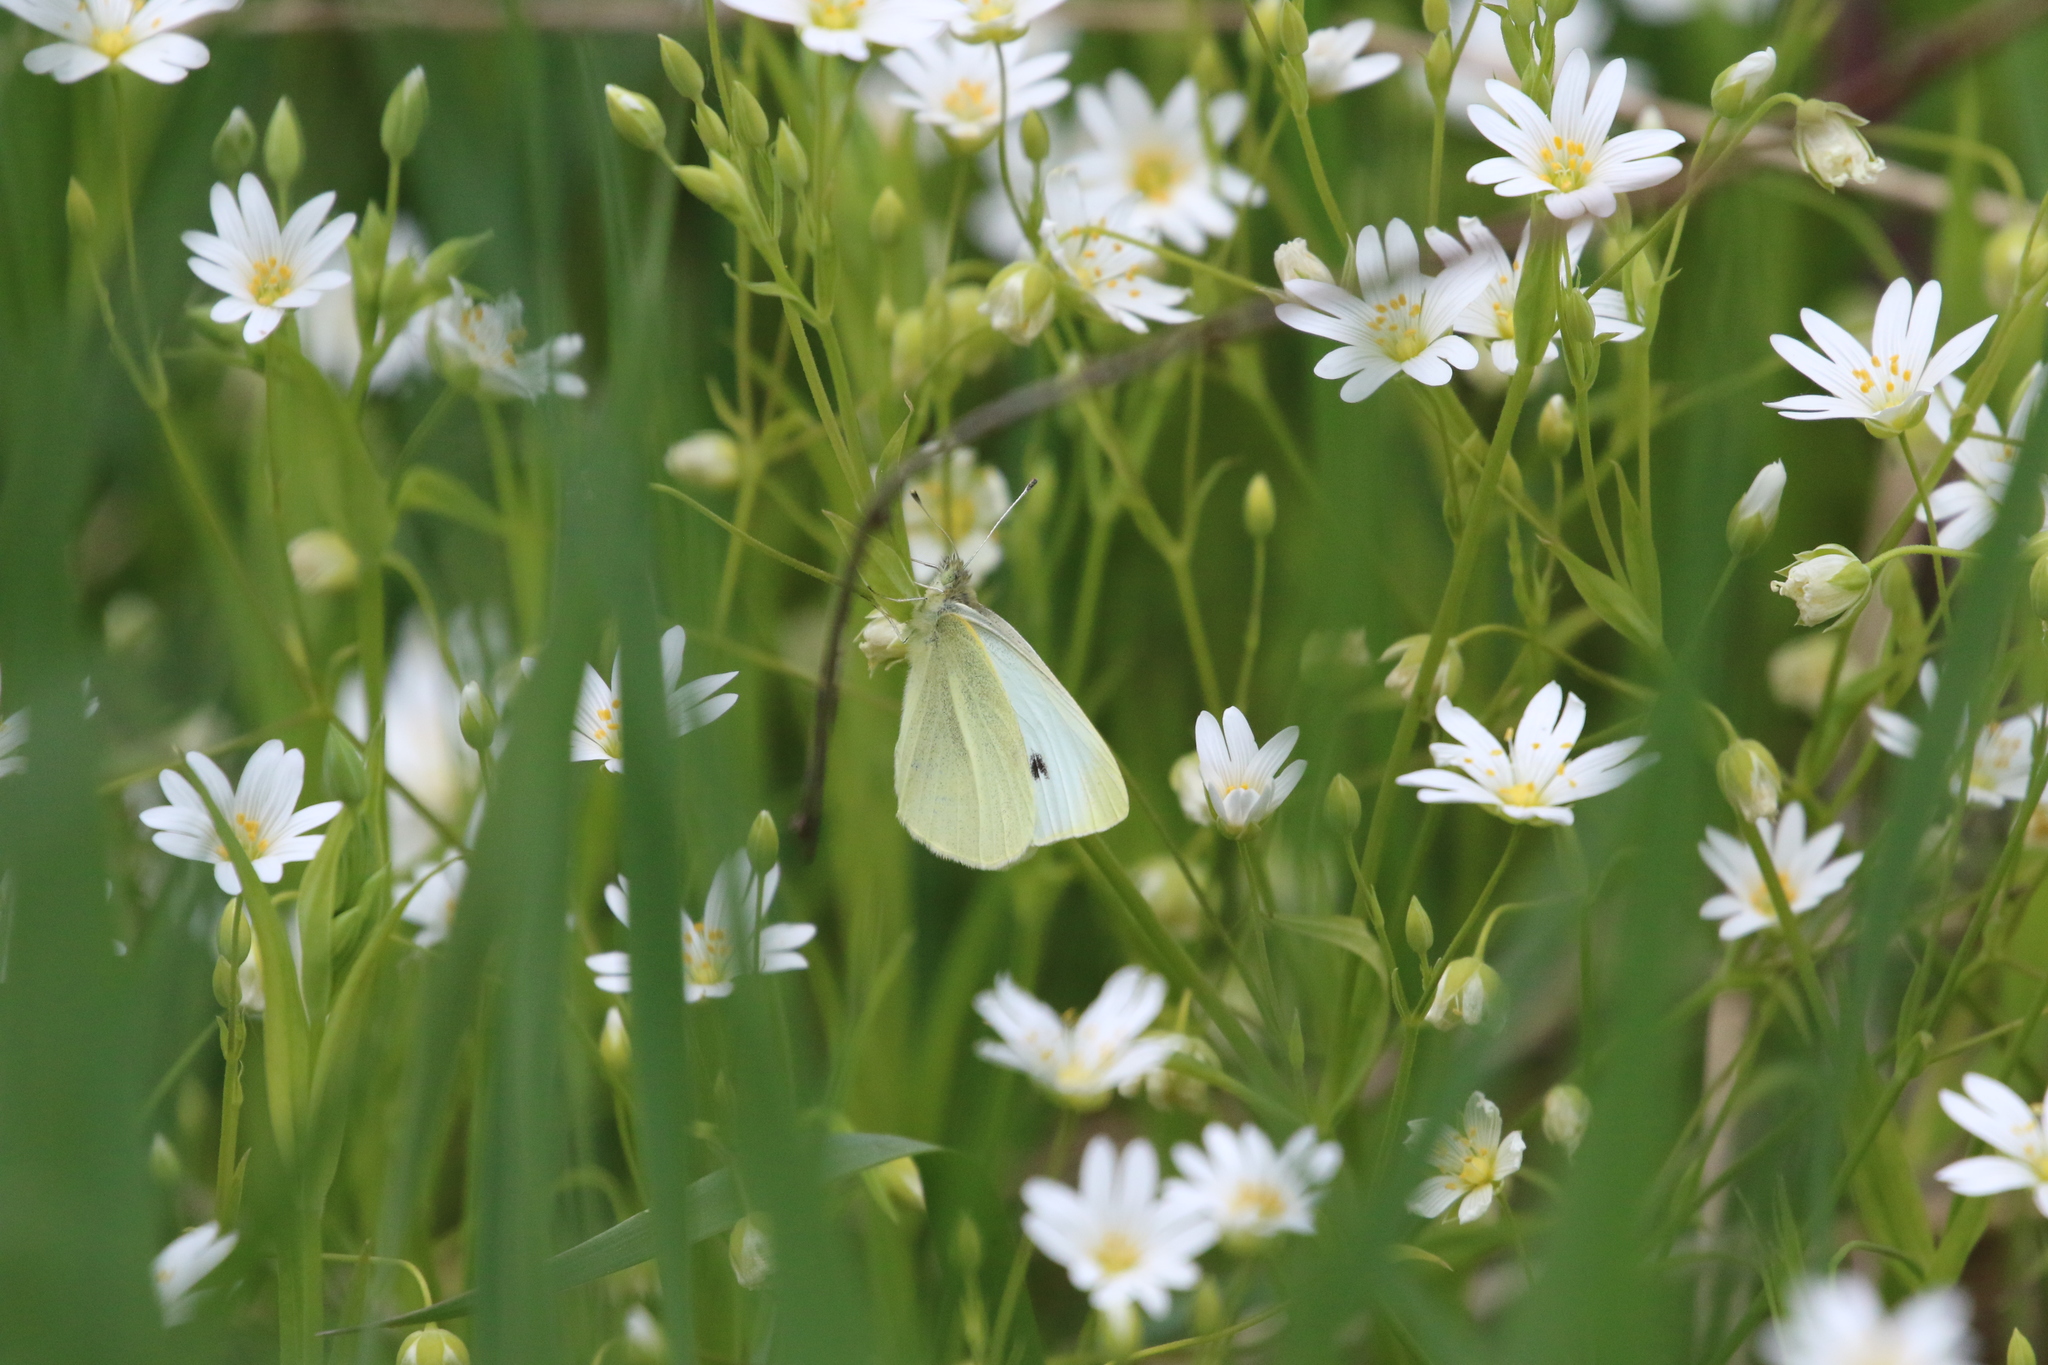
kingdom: Animalia
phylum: Arthropoda
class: Insecta
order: Lepidoptera
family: Pieridae
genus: Pieris
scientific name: Pieris rapae
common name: Small white
